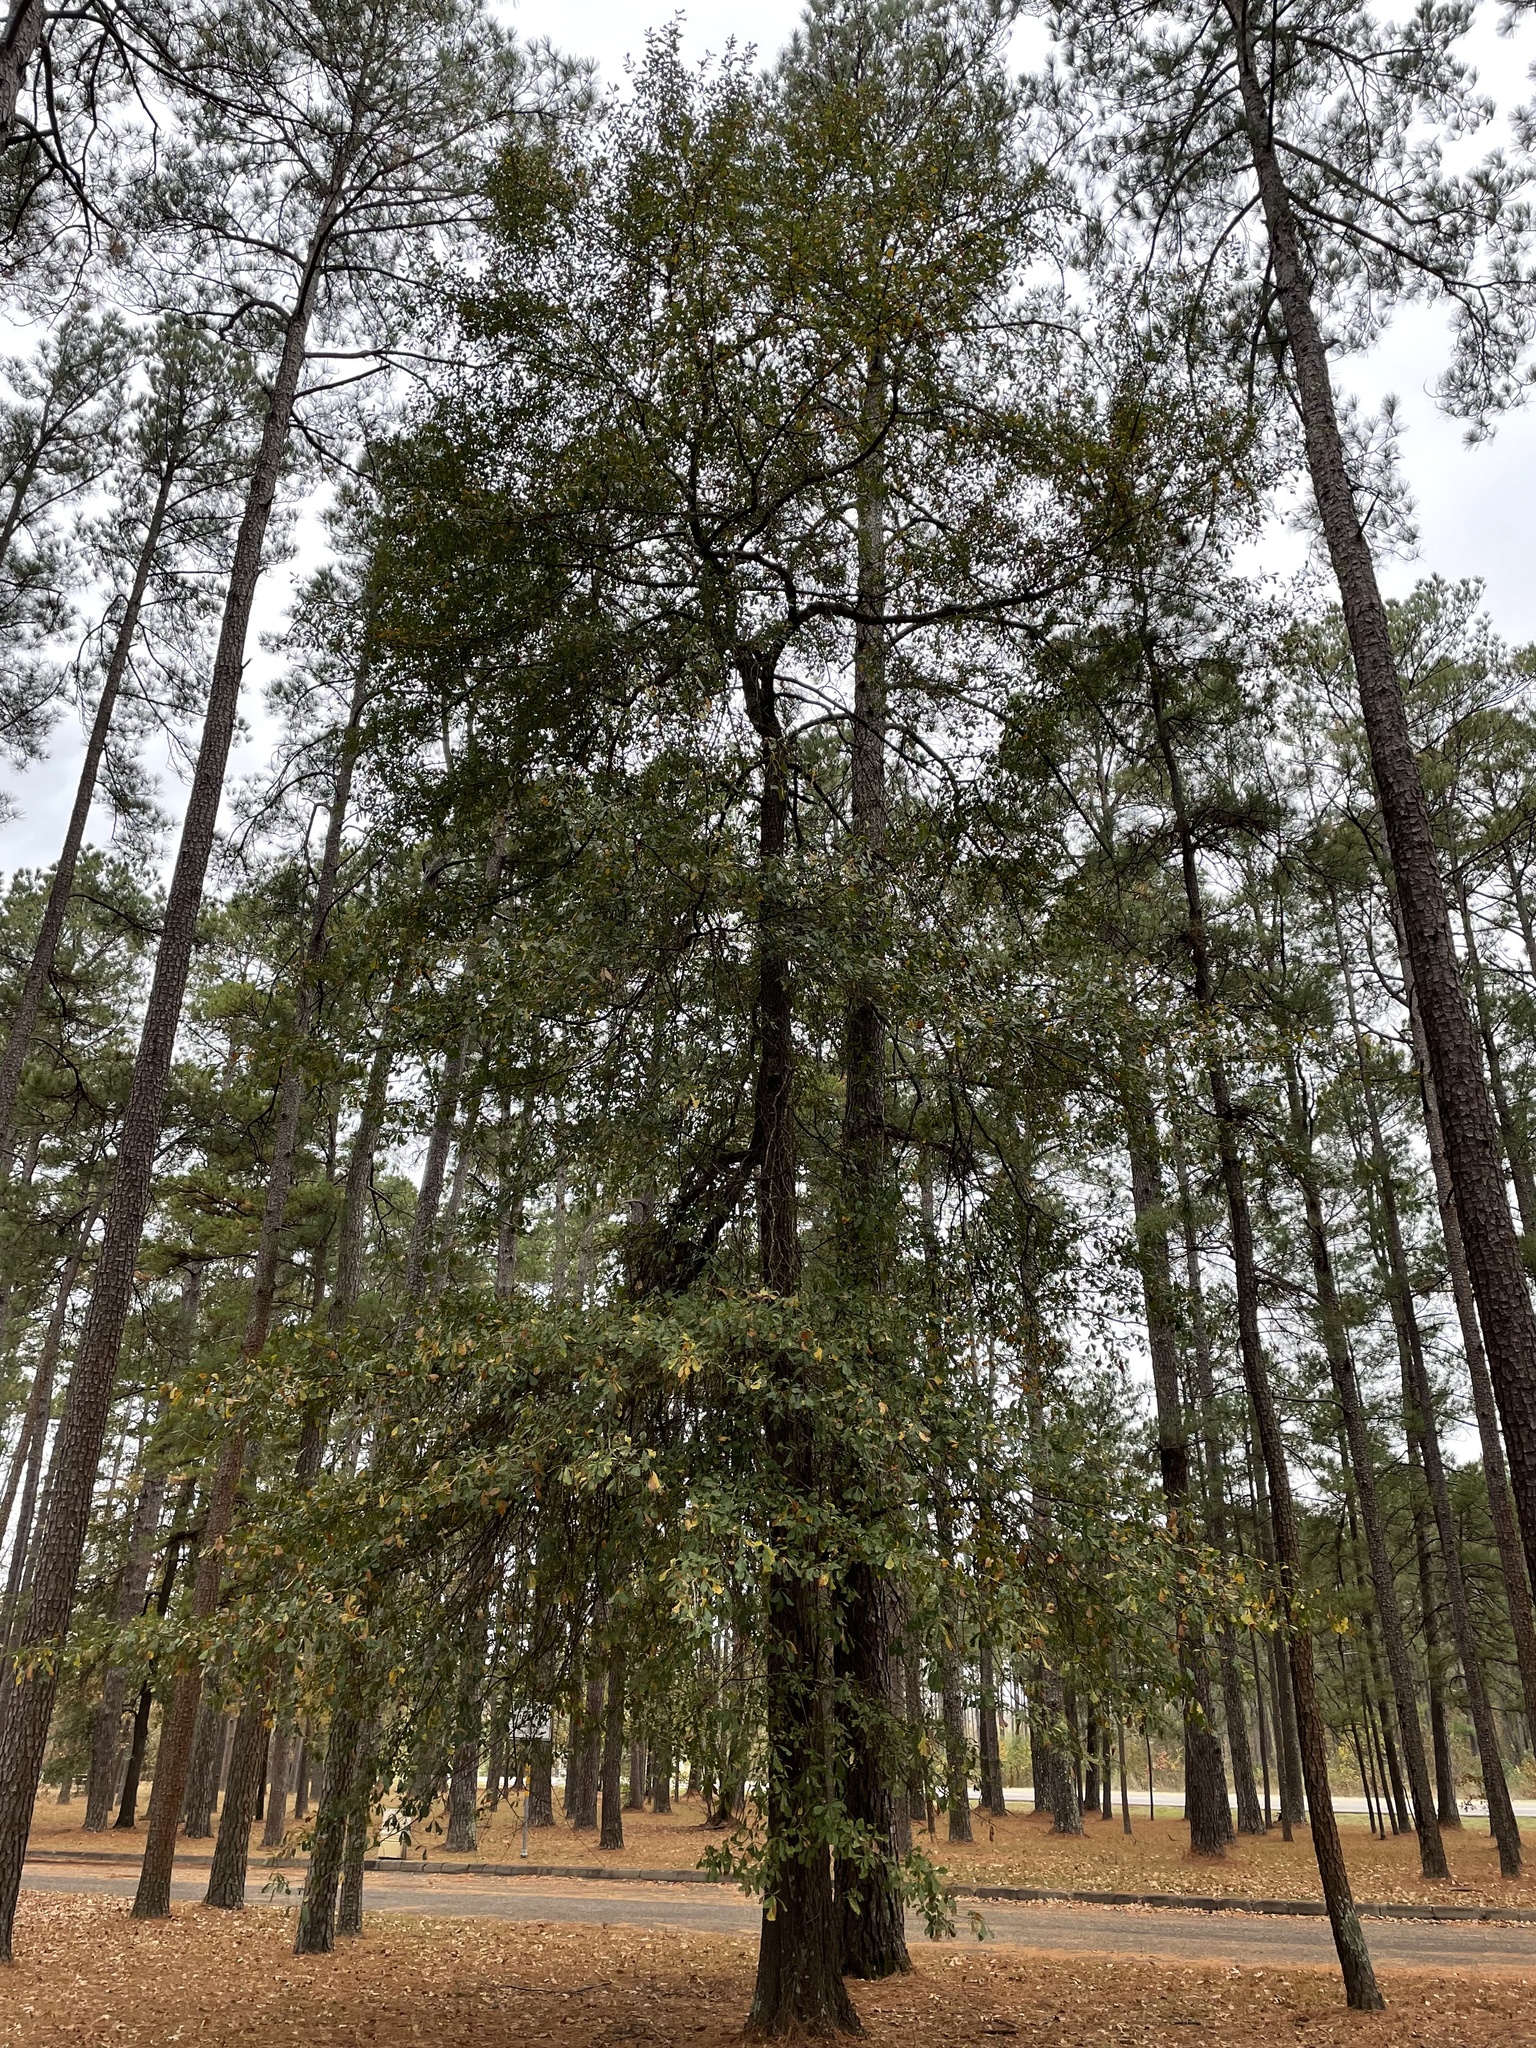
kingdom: Plantae
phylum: Tracheophyta
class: Magnoliopsida
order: Fagales
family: Fagaceae
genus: Quercus
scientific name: Quercus nigra
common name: Water oak
